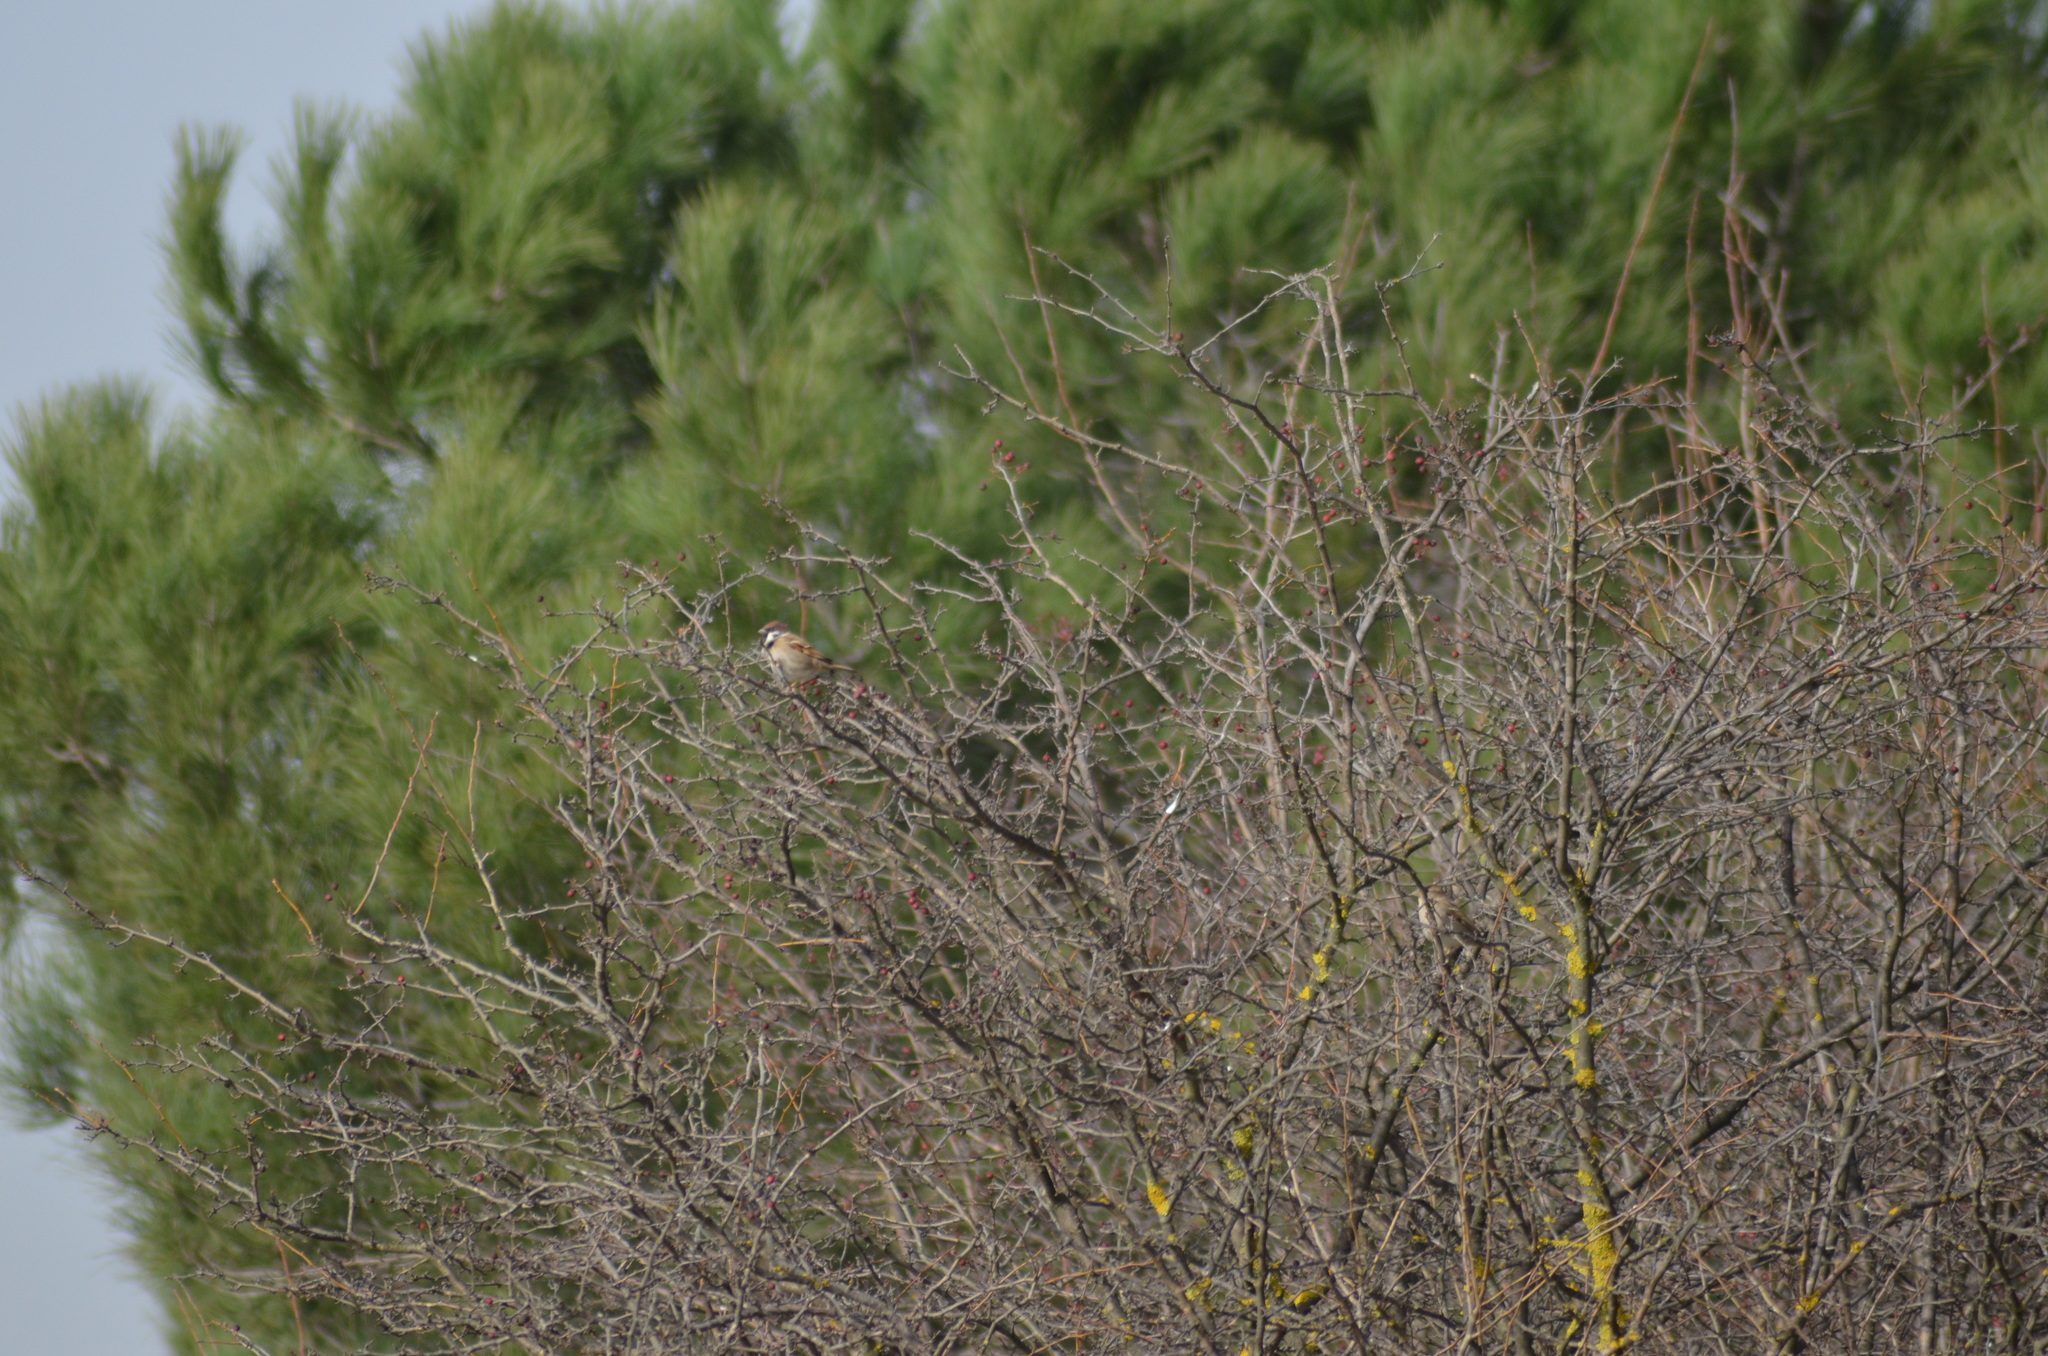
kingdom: Animalia
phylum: Chordata
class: Aves
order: Passeriformes
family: Passeridae
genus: Passer
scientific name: Passer montanus
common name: Eurasian tree sparrow
